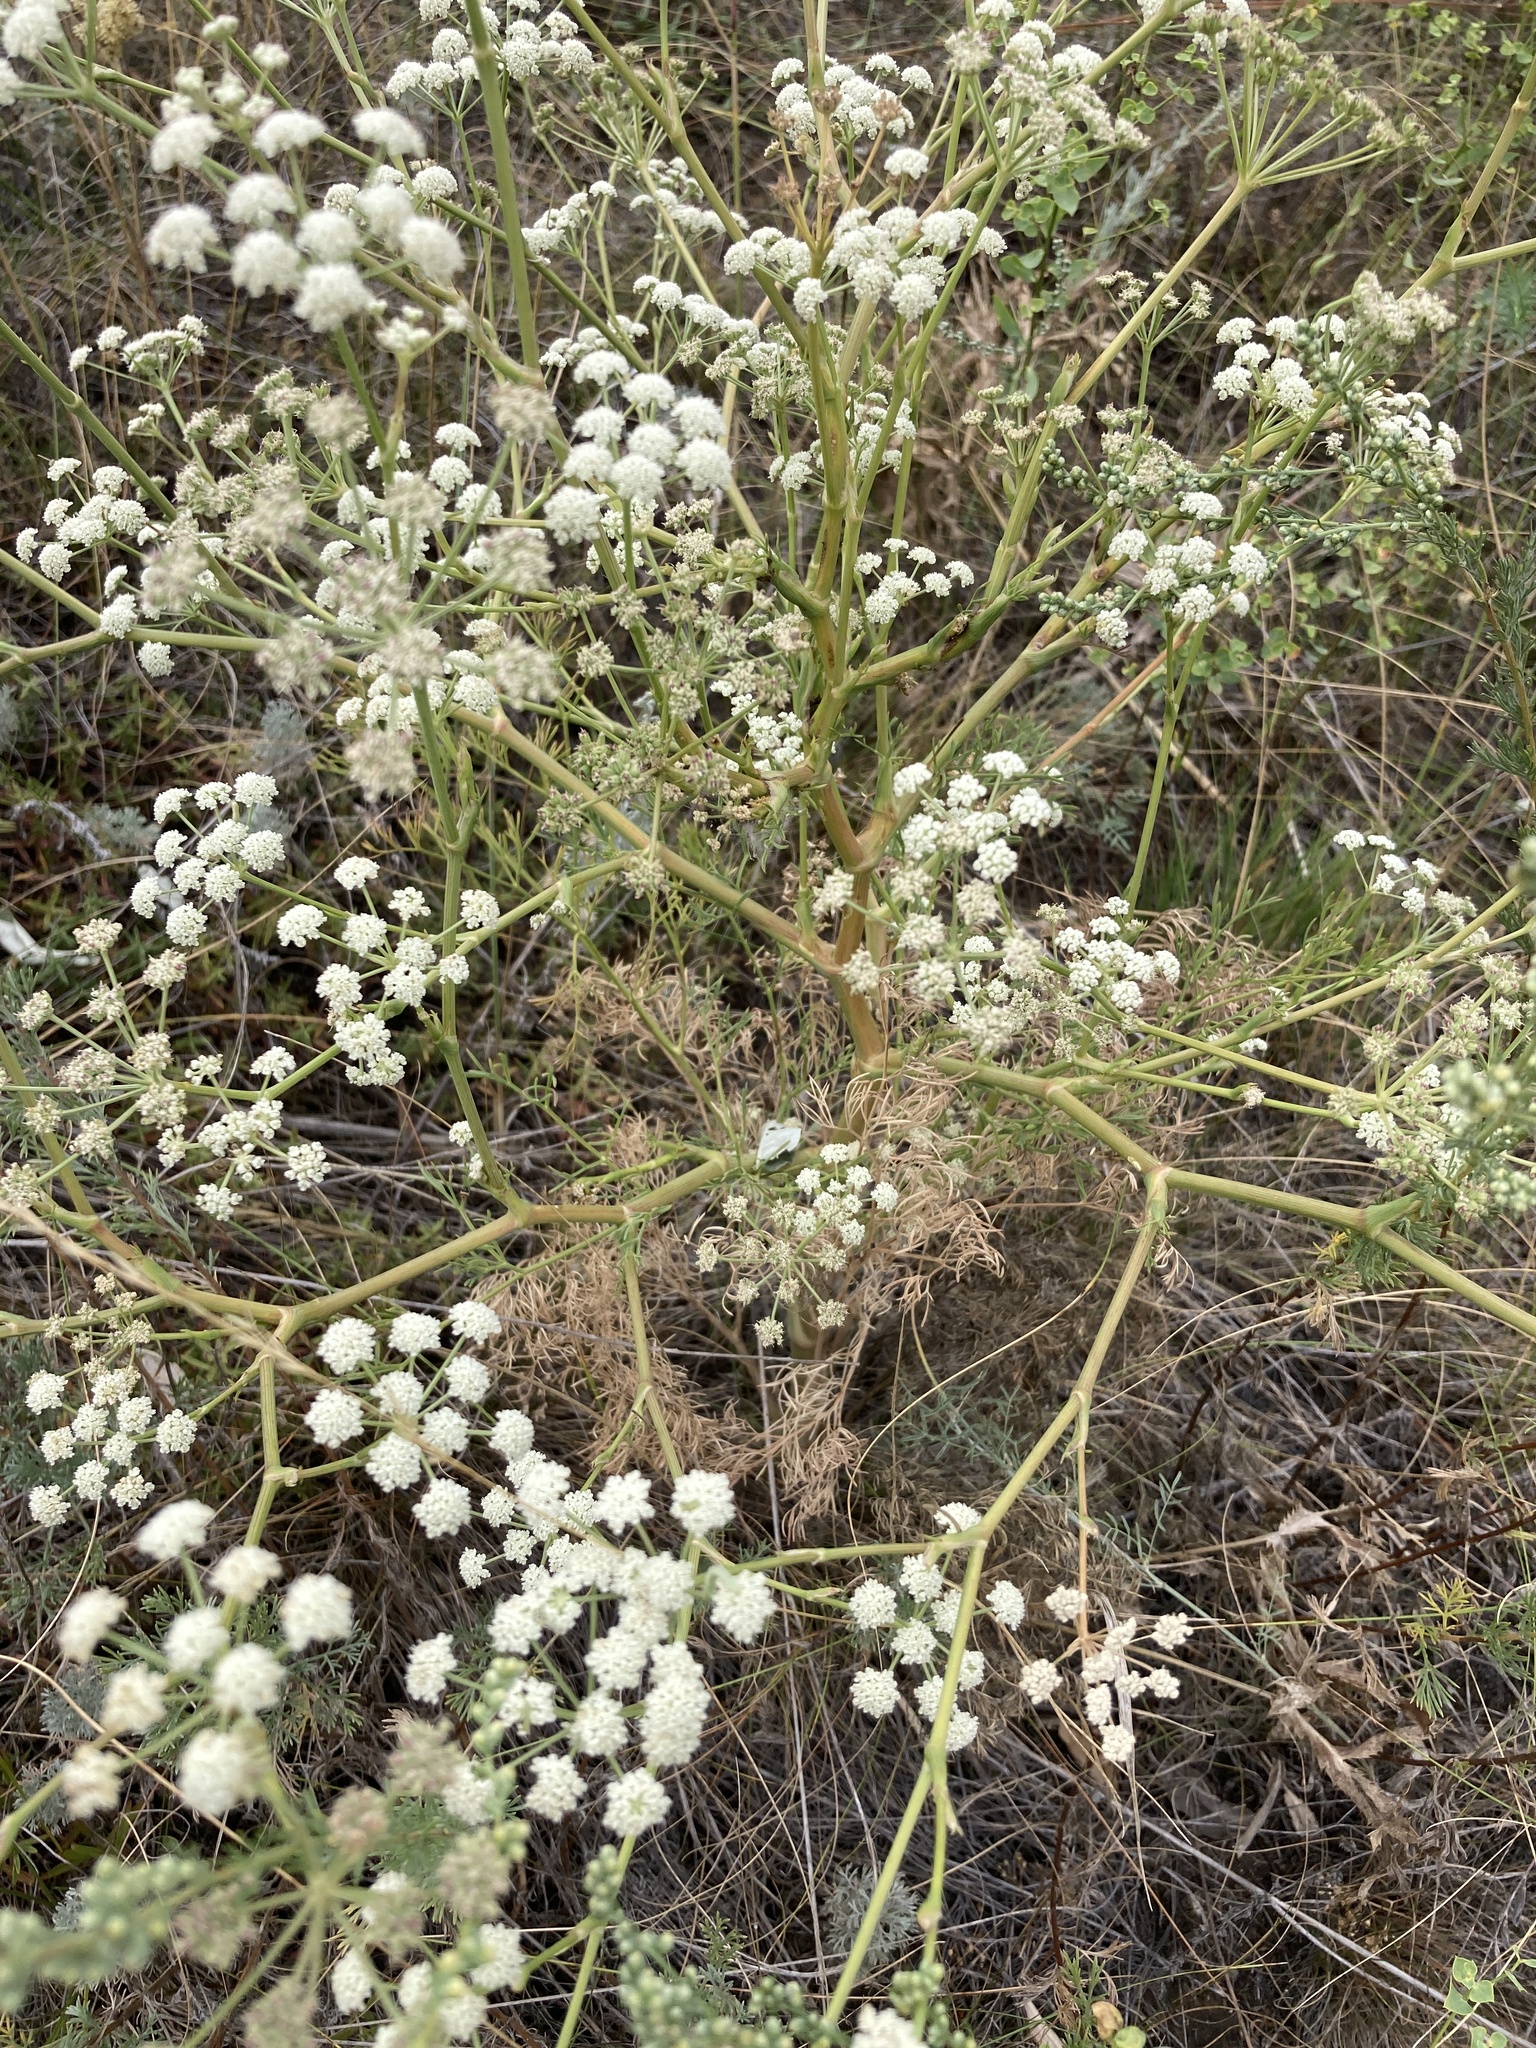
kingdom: Plantae
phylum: Tracheophyta
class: Magnoliopsida
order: Apiales
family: Apiaceae
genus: Seseli
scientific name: Seseli arenarium
